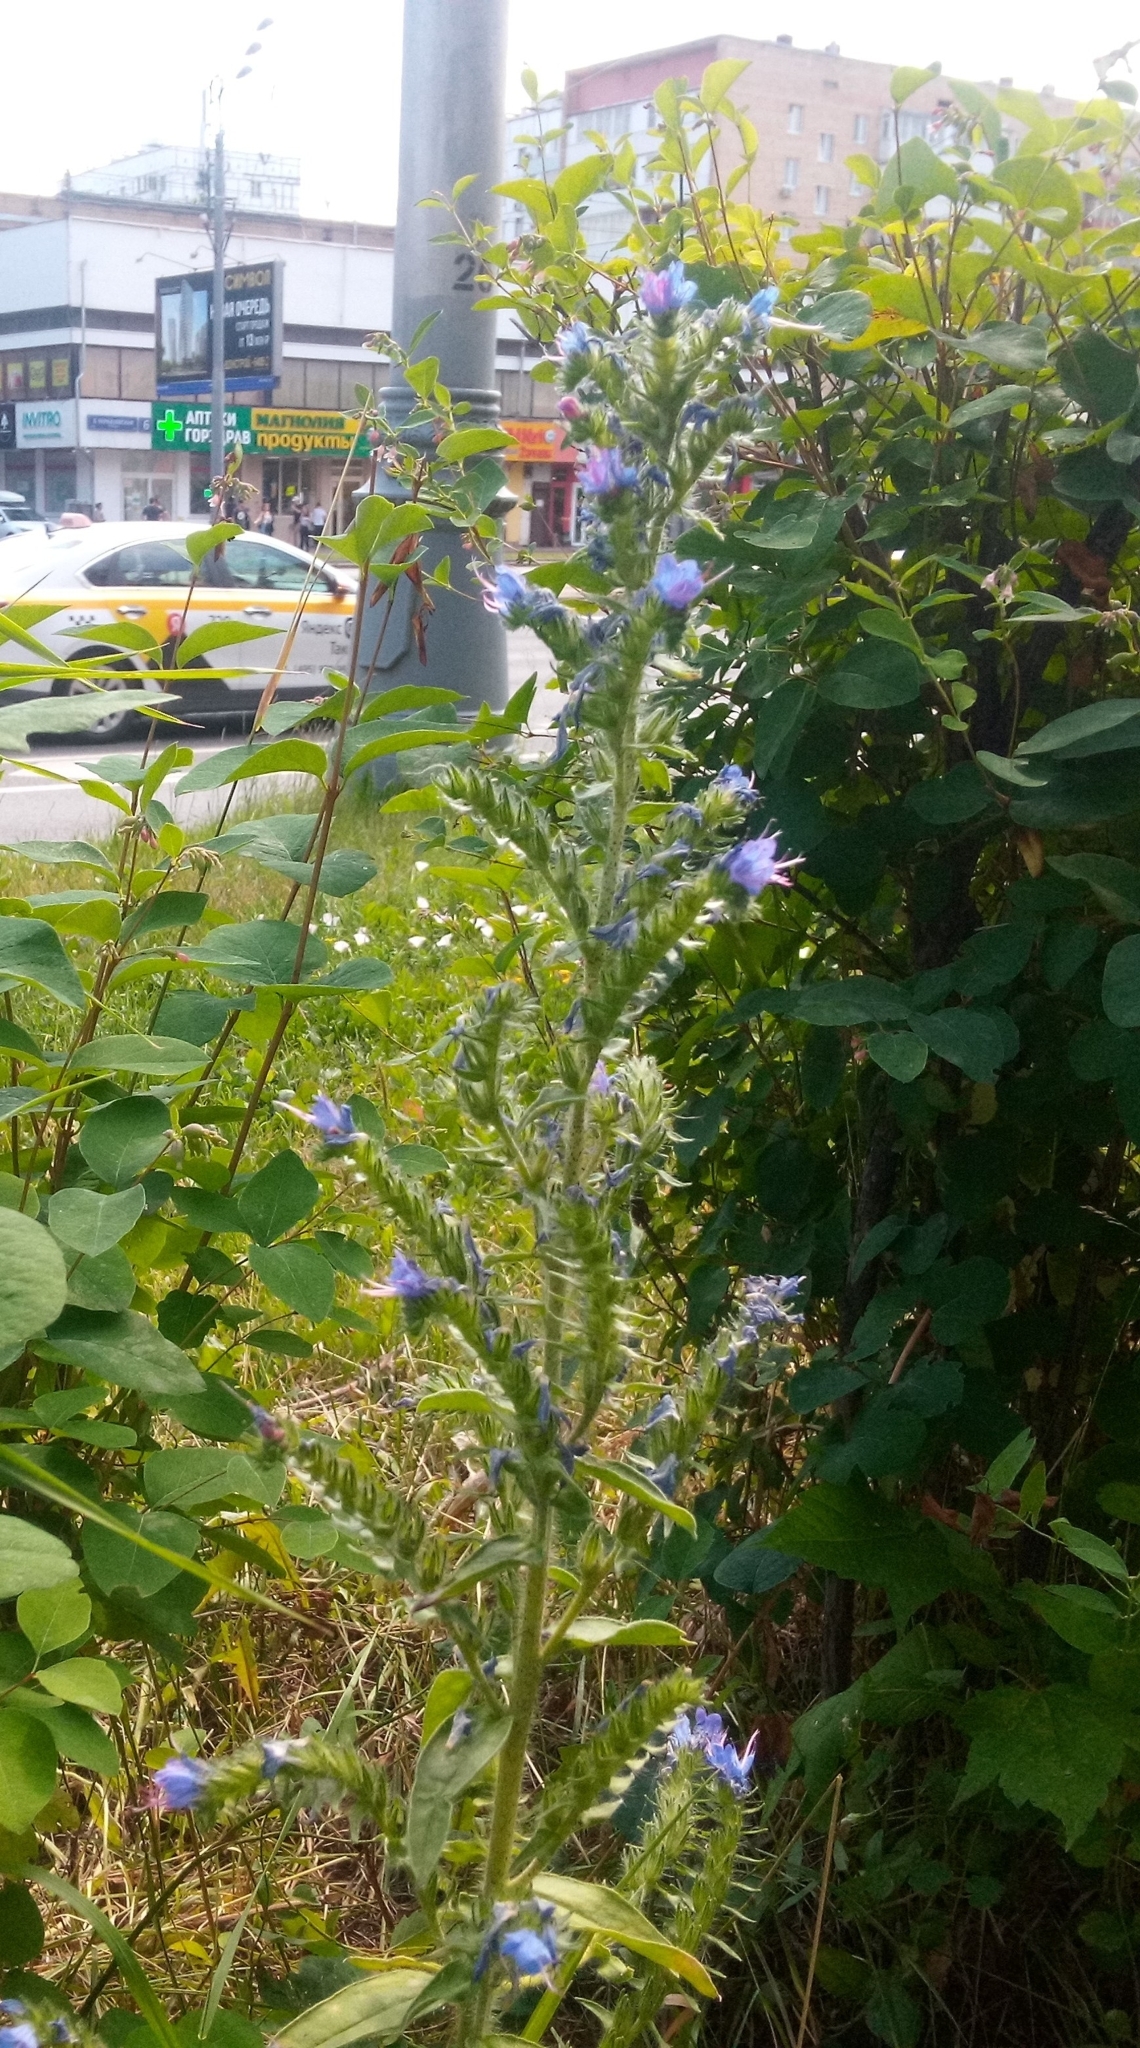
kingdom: Plantae
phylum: Tracheophyta
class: Magnoliopsida
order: Boraginales
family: Boraginaceae
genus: Echium
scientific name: Echium vulgare
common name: Common viper's bugloss
